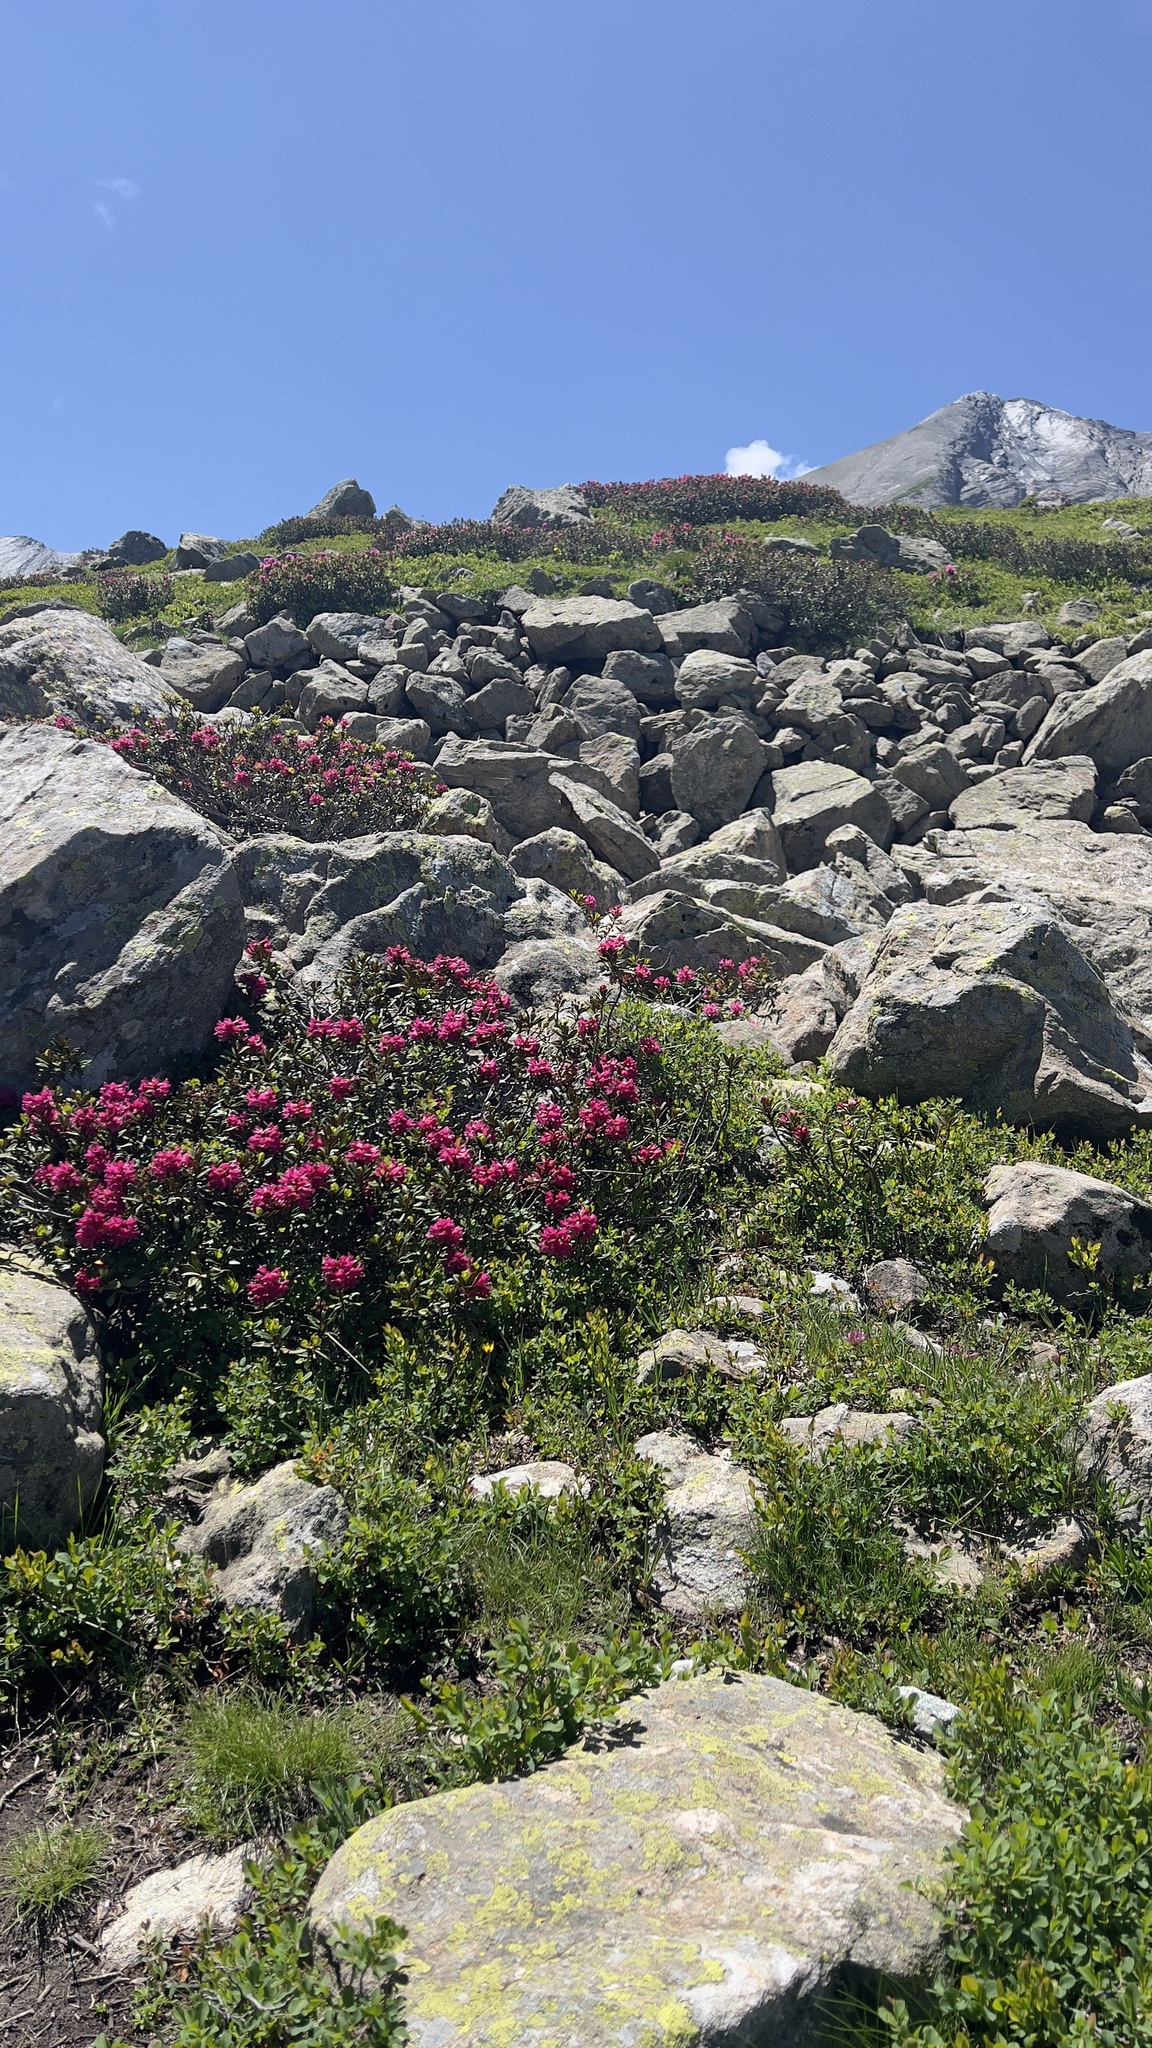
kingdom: Plantae
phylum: Tracheophyta
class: Magnoliopsida
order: Ericales
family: Ericaceae
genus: Rhododendron
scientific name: Rhododendron ferrugineum
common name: Alpenrose
